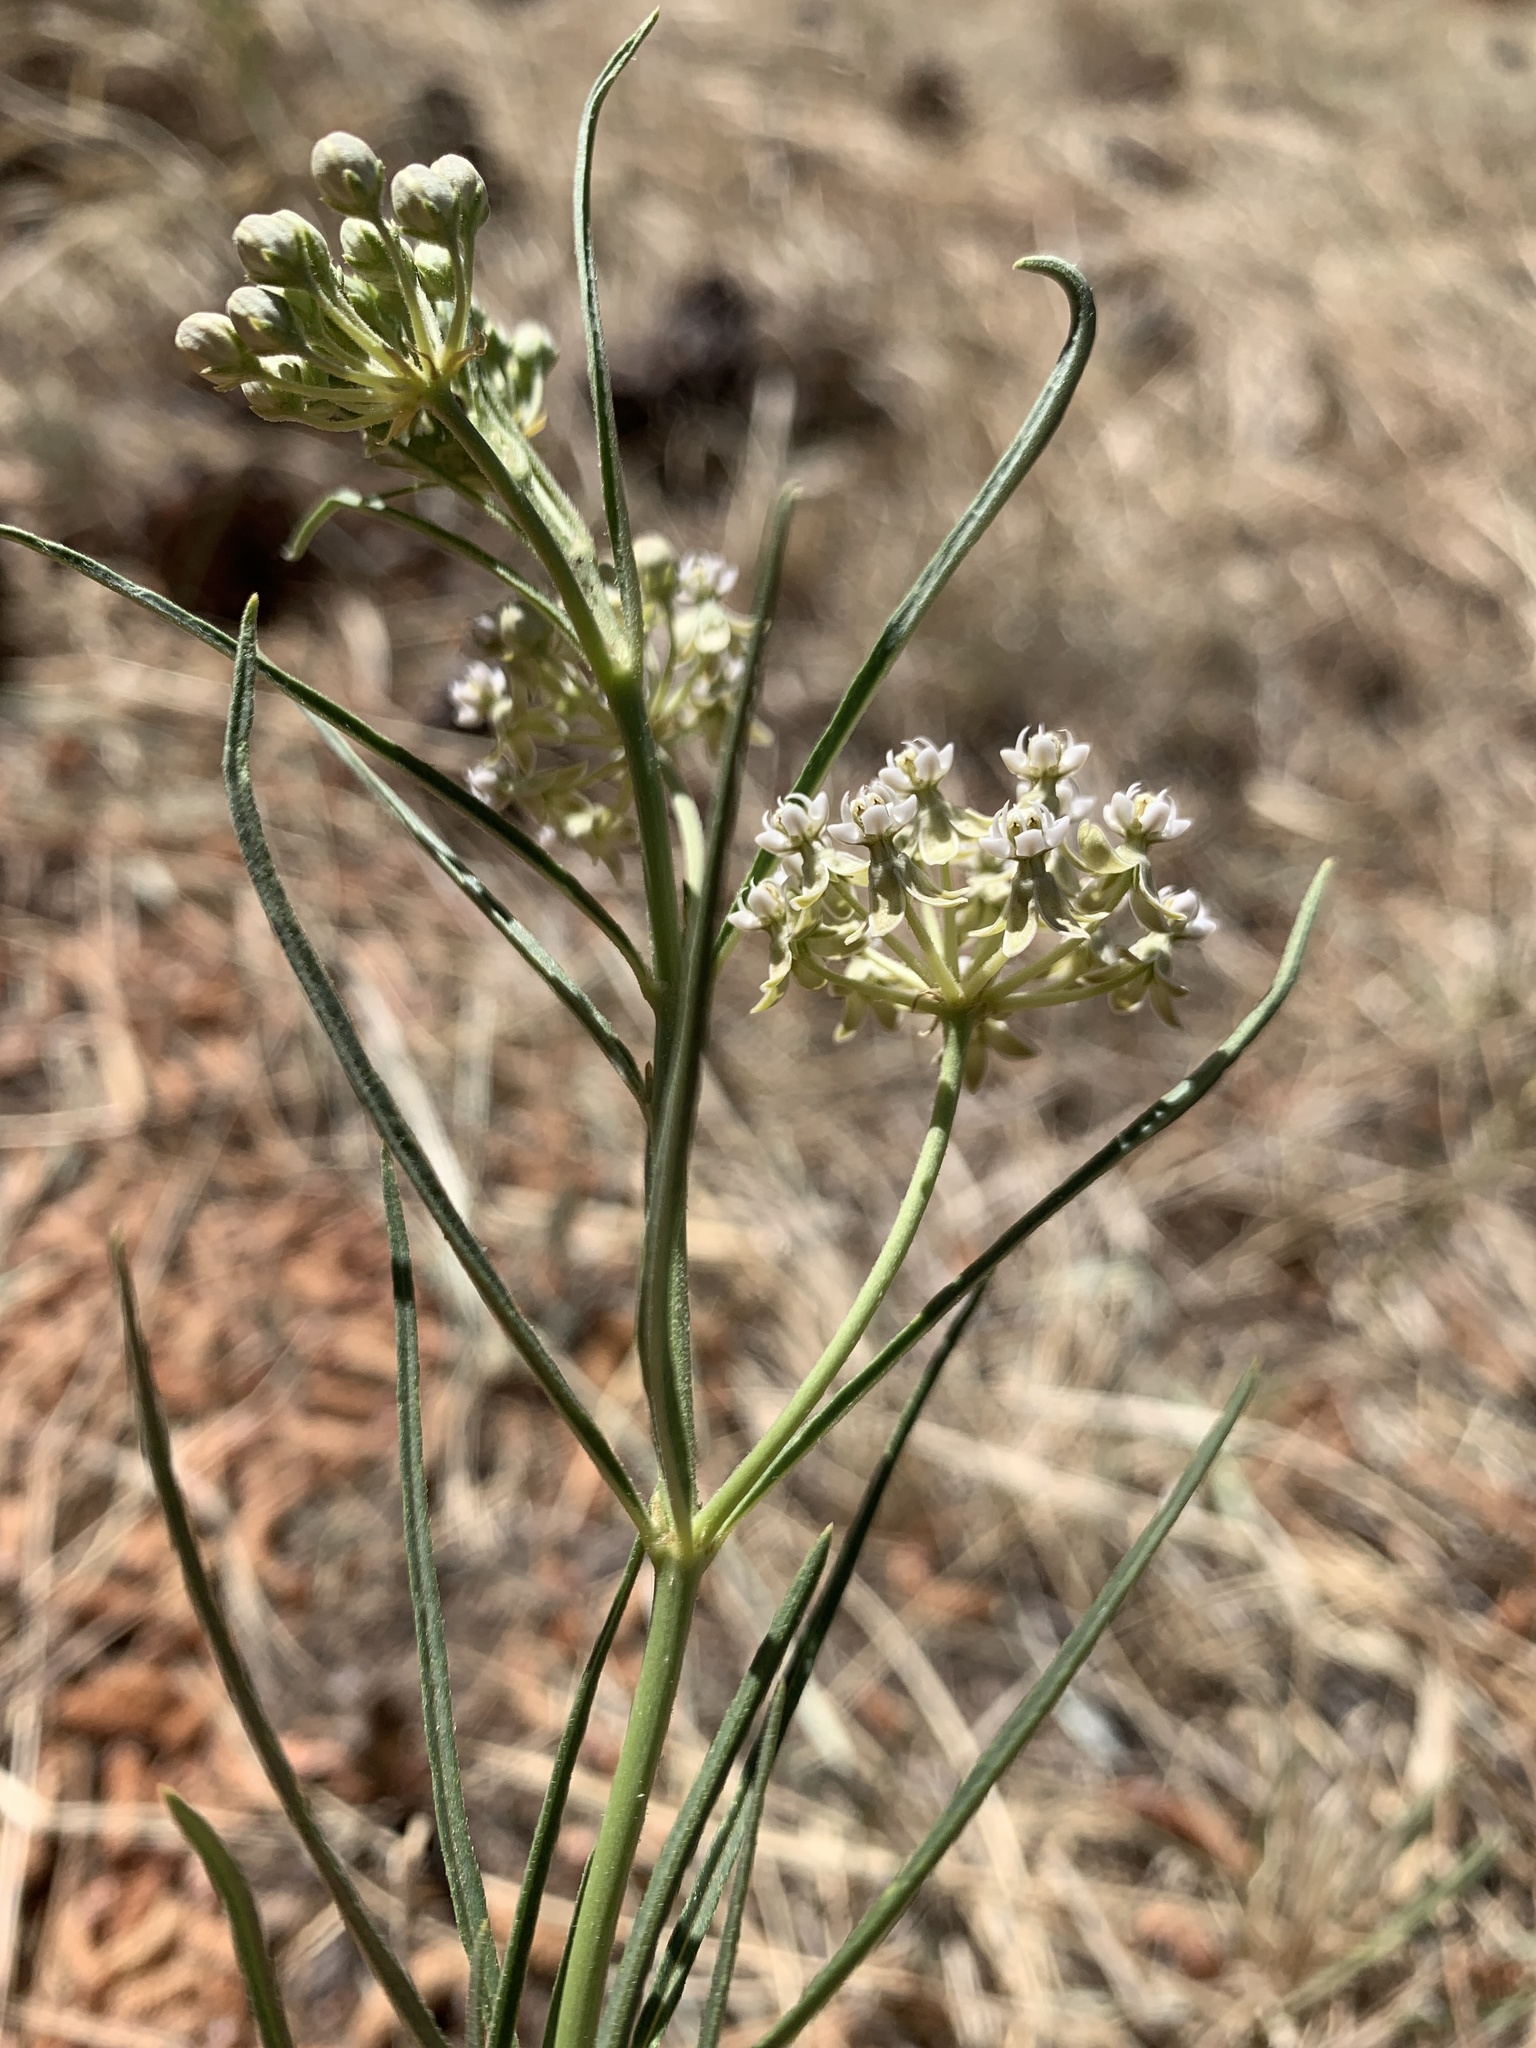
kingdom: Plantae
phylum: Tracheophyta
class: Magnoliopsida
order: Gentianales
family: Apocynaceae
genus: Asclepias
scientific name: Asclepias subverticillata
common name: Horsetail milkweed
